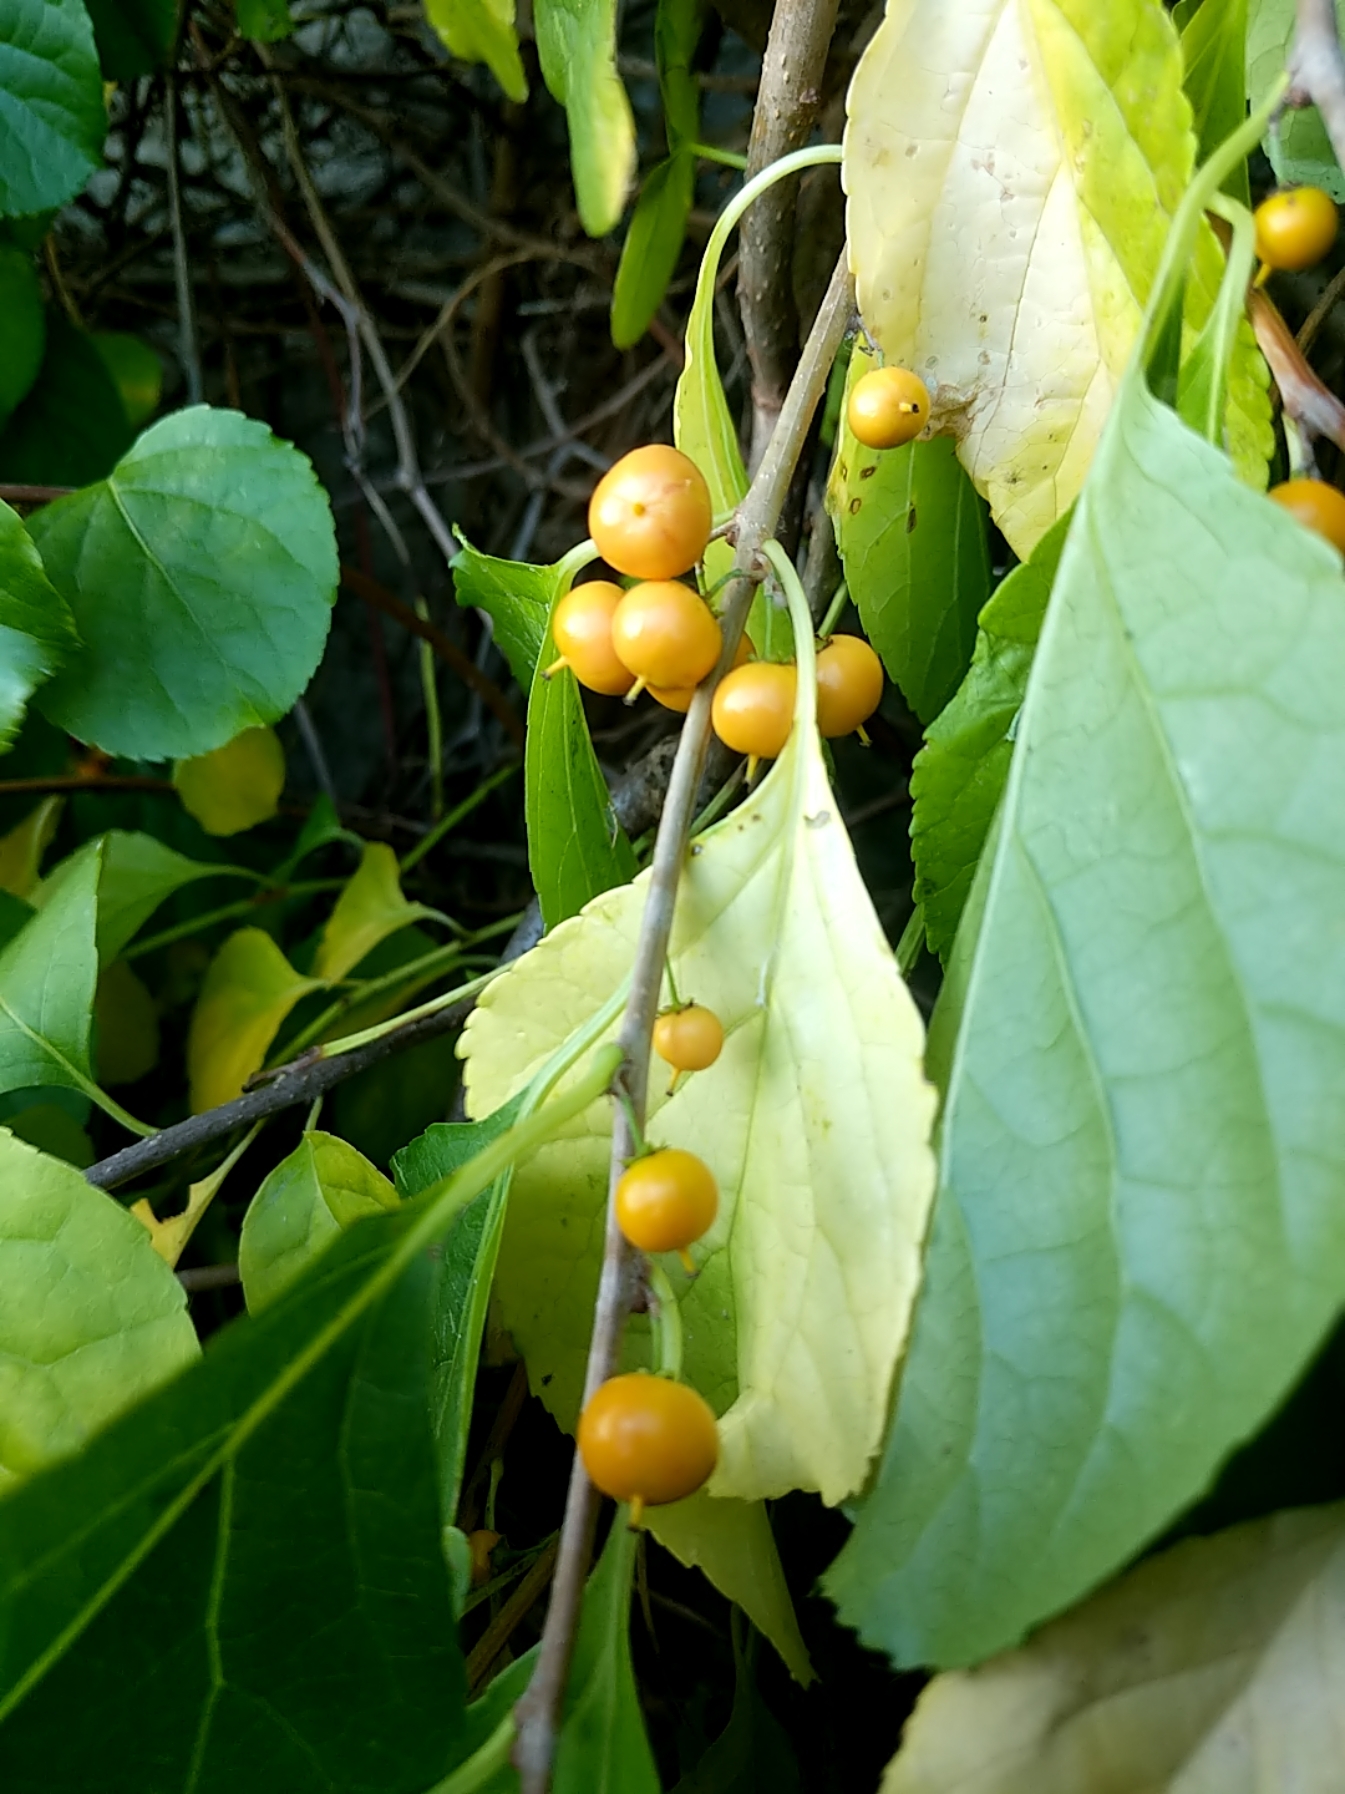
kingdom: Plantae
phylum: Tracheophyta
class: Magnoliopsida
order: Celastrales
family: Celastraceae
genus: Celastrus
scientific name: Celastrus orbiculatus
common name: Oriental bittersweet
